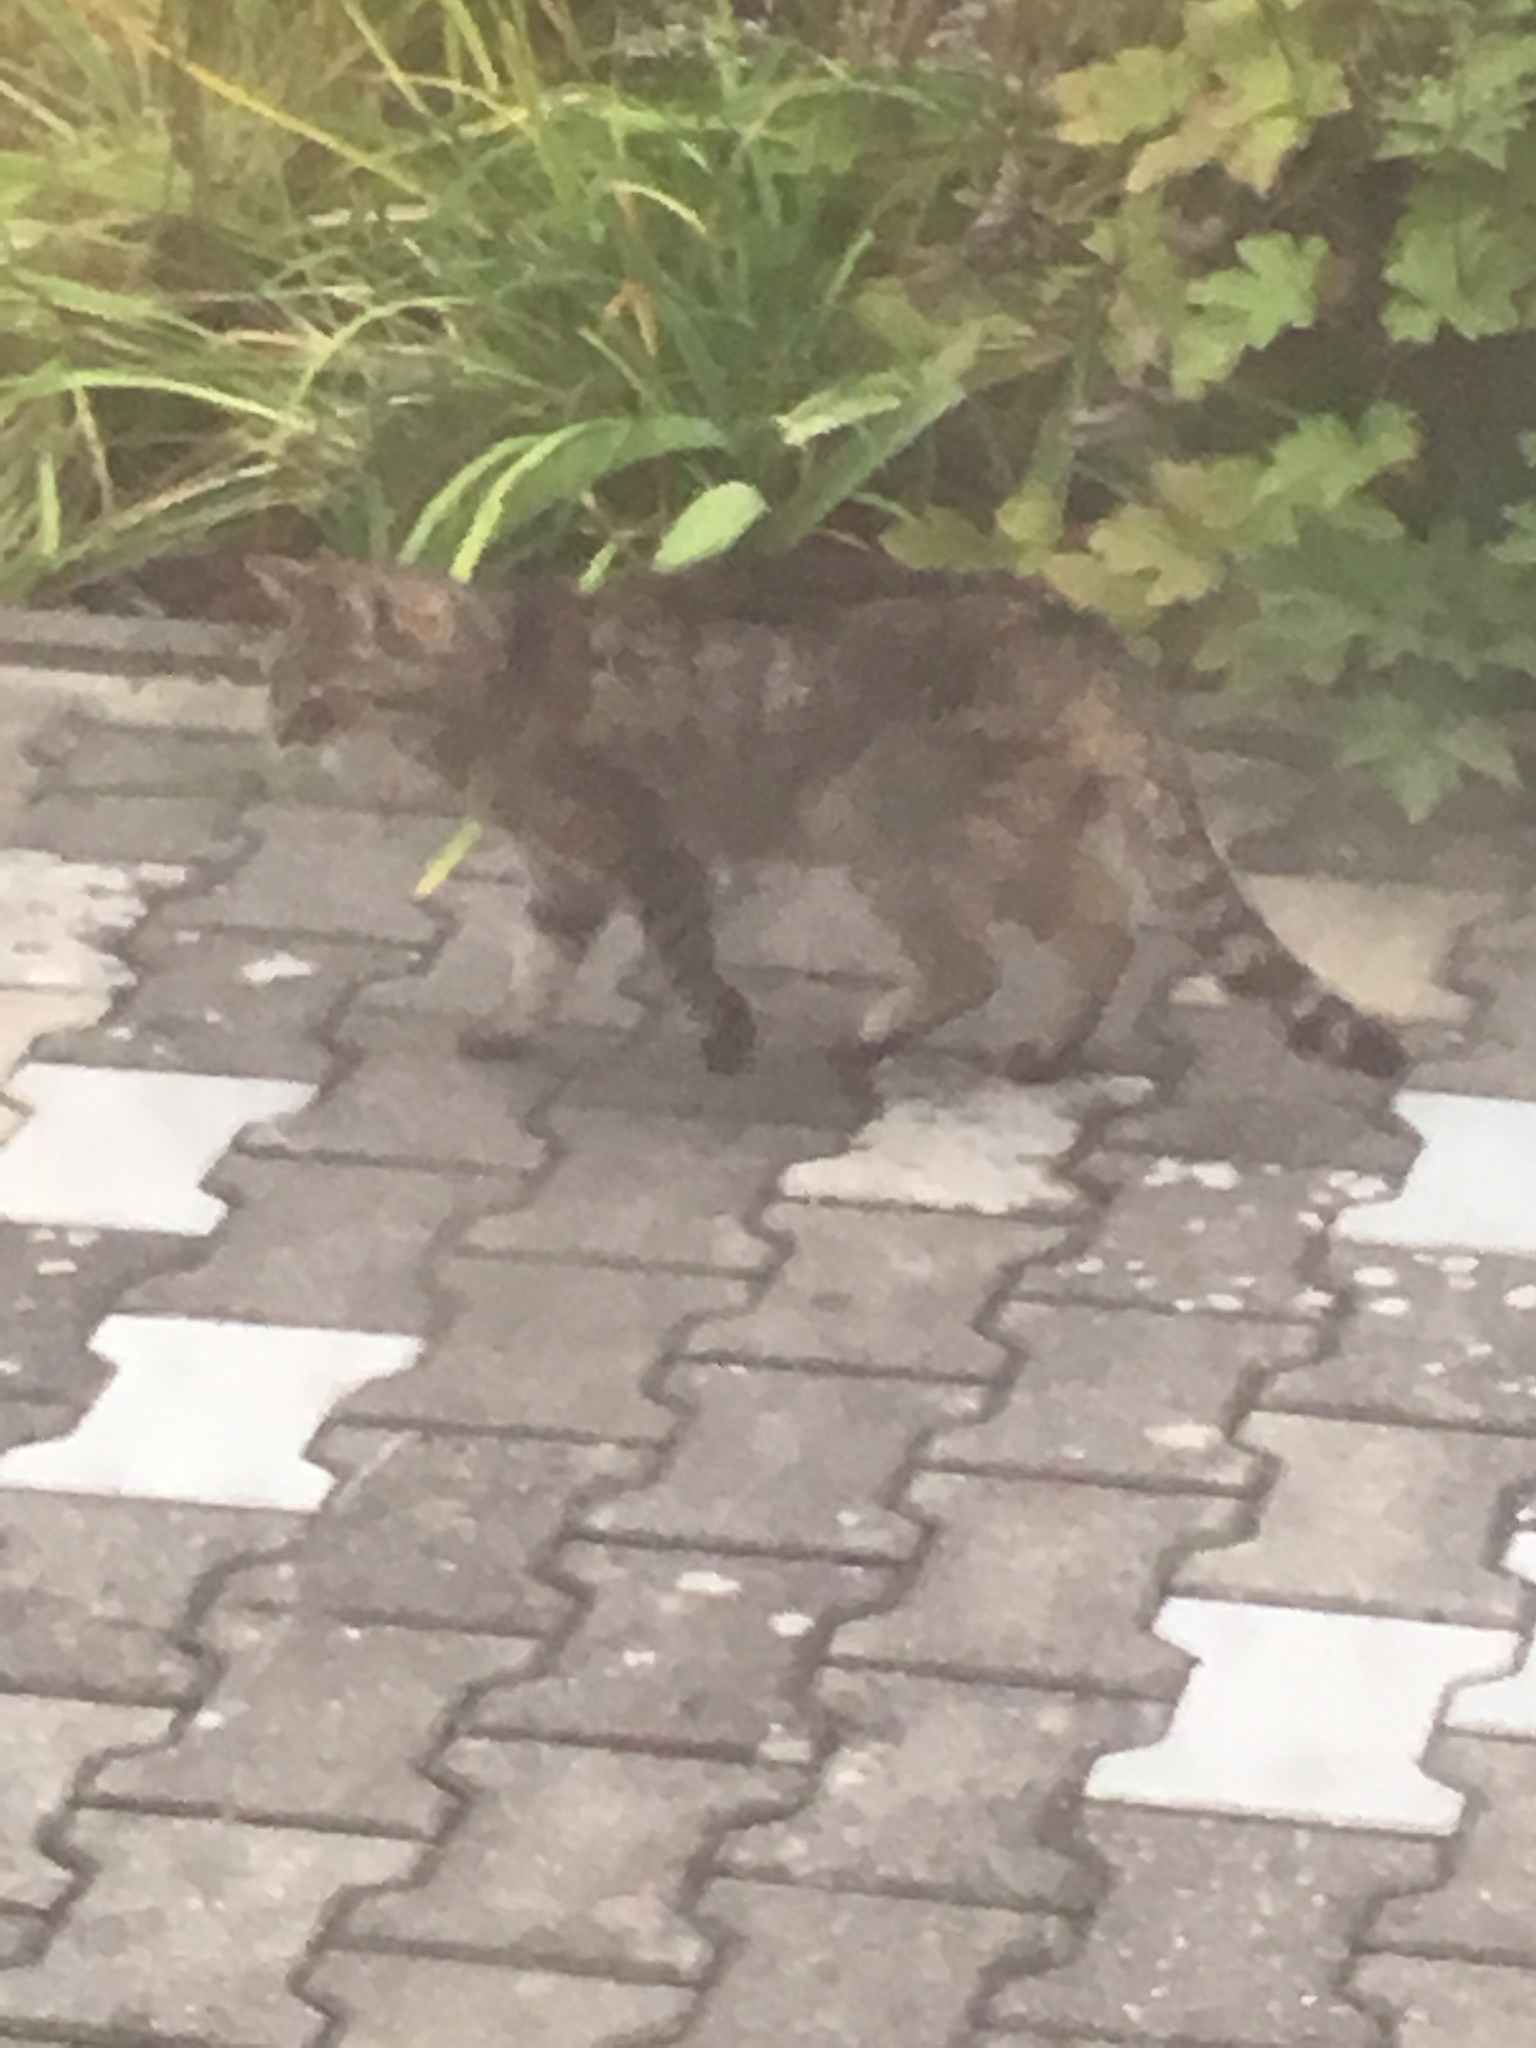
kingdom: Animalia
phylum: Chordata
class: Mammalia
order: Carnivora
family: Felidae
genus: Felis
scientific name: Felis catus
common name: Domestic cat
